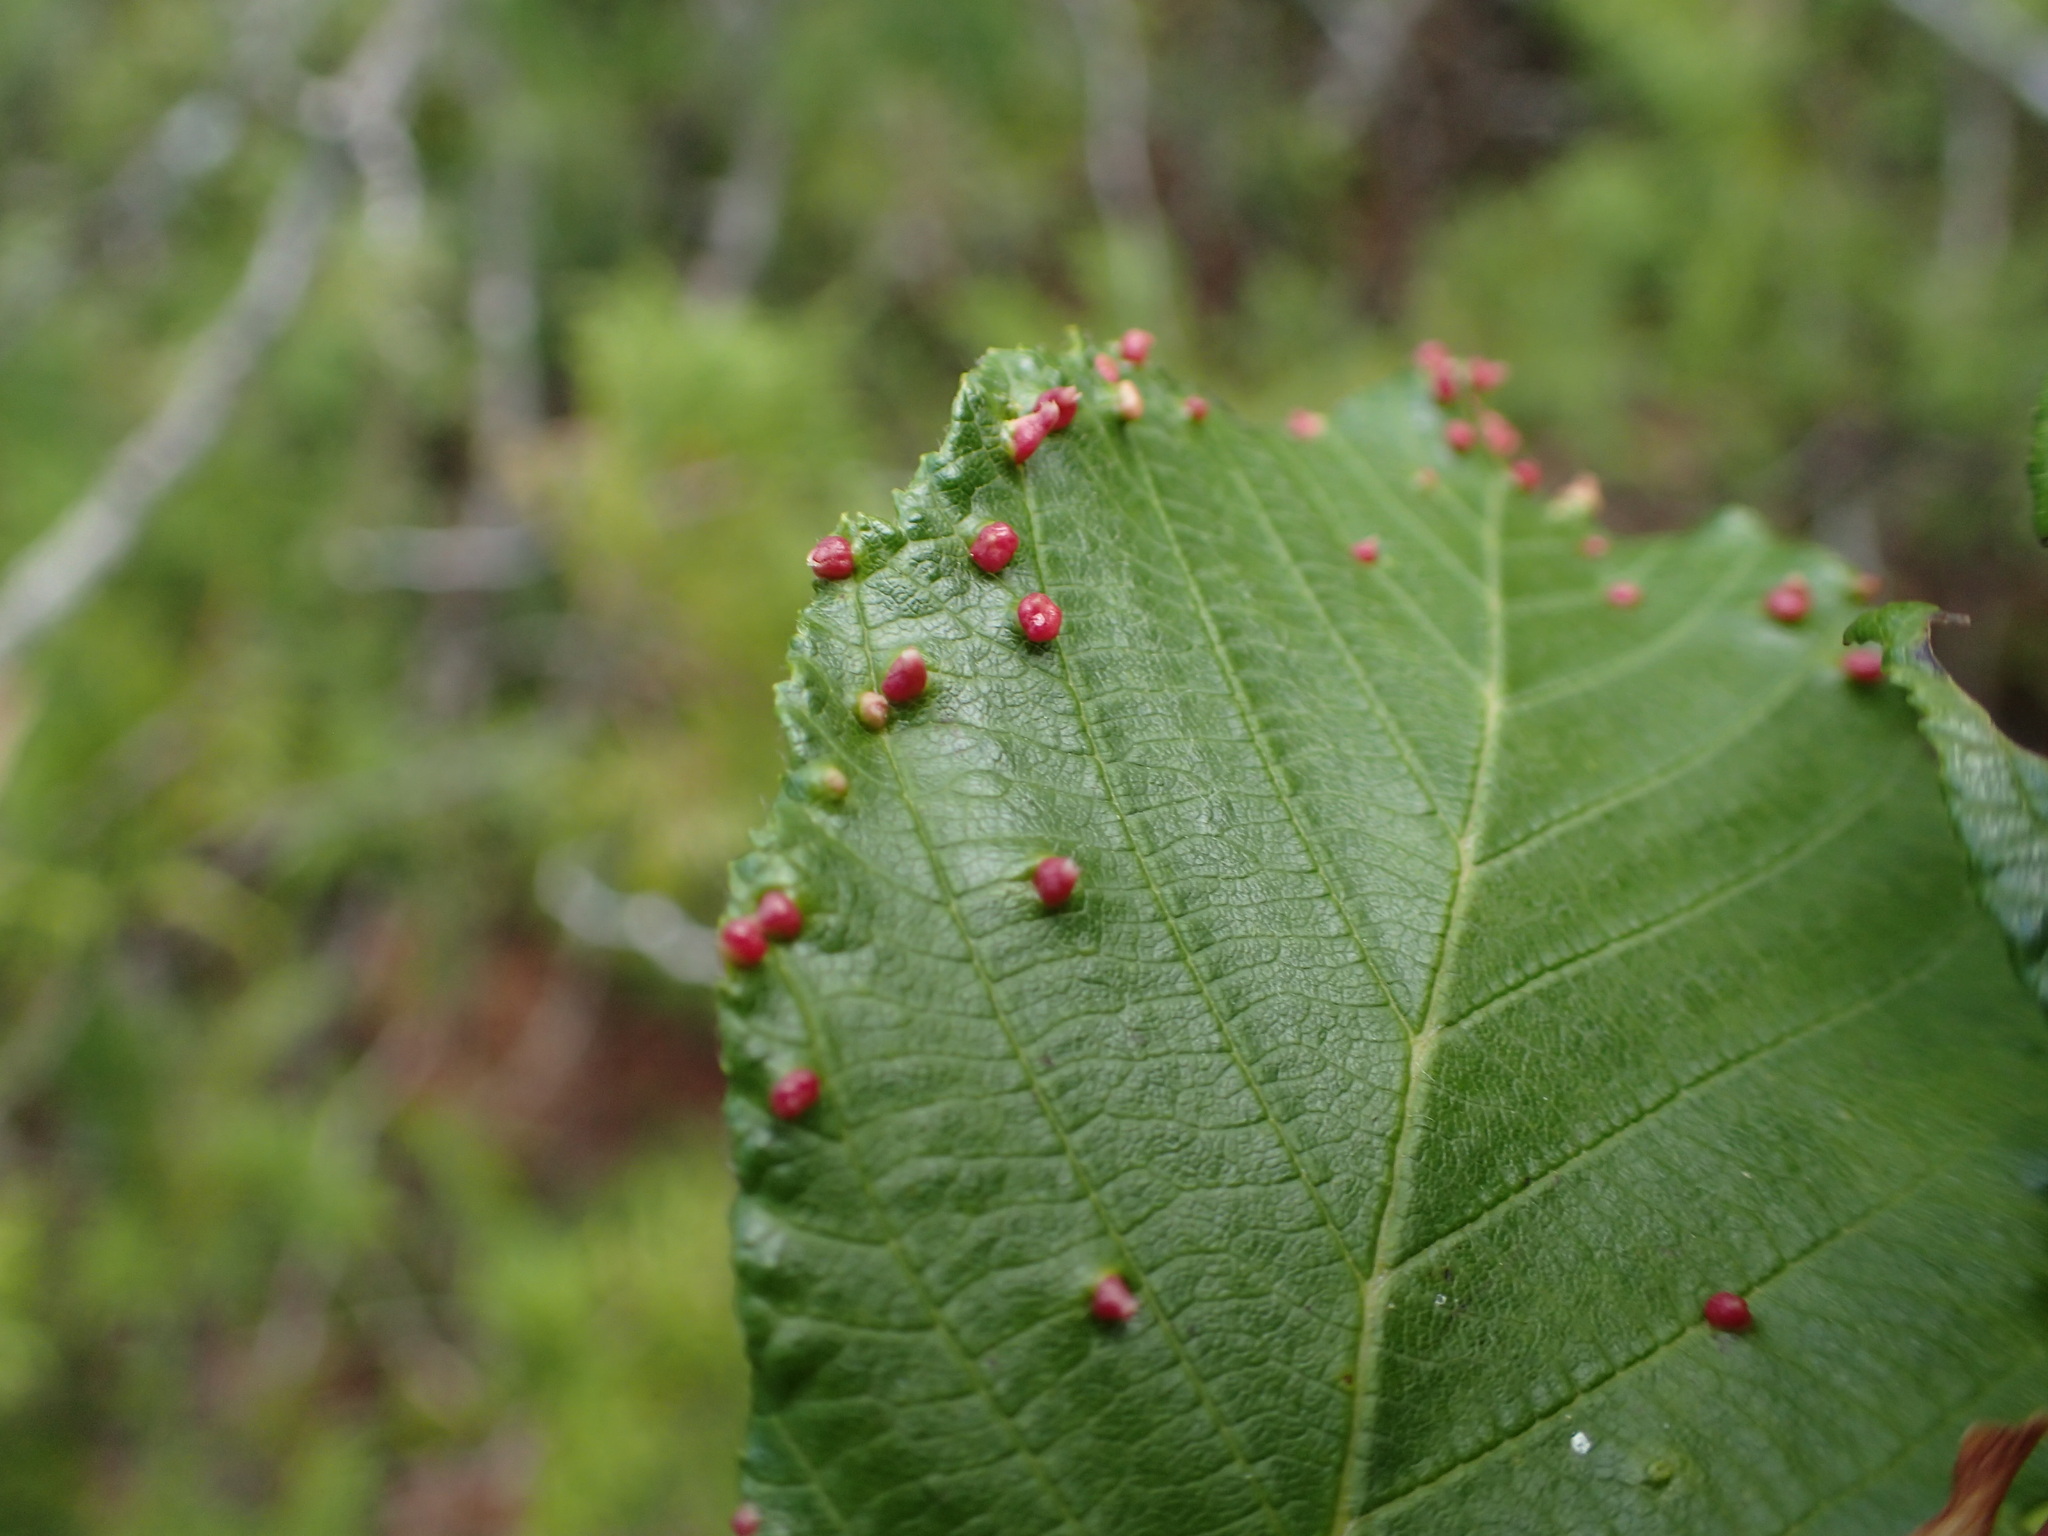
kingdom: Animalia
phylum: Arthropoda
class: Arachnida
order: Trombidiformes
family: Eriophyidae
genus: Eriophyes
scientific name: Eriophyes laevis
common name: Alder leaf gall mite
